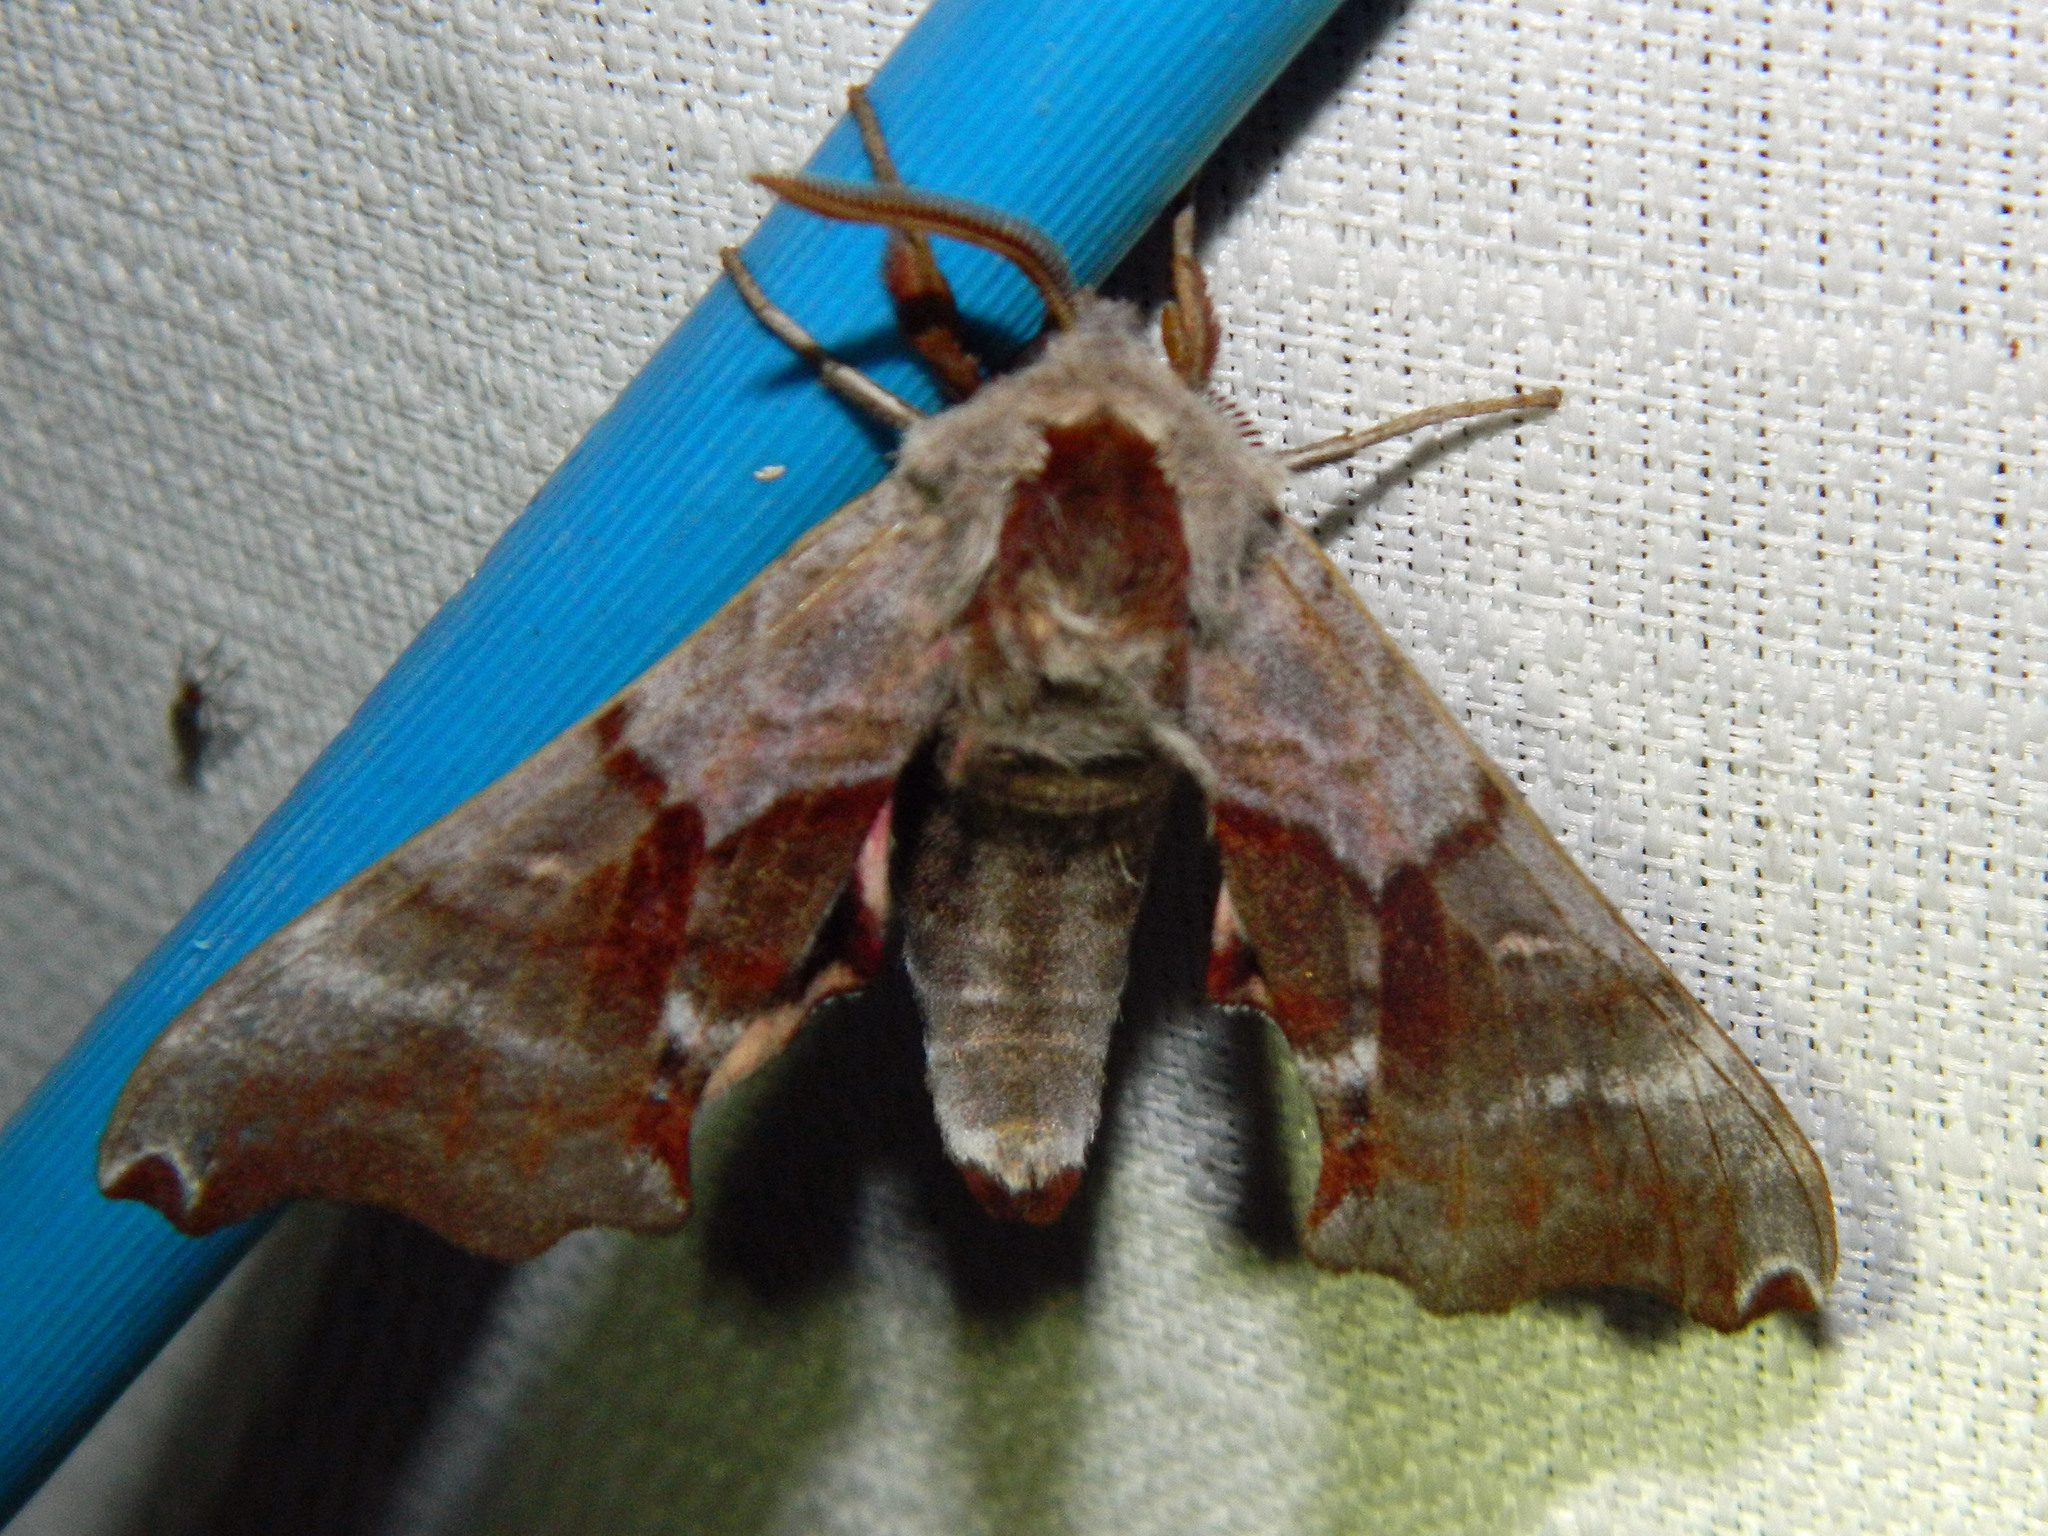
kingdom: Animalia
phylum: Arthropoda
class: Insecta
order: Lepidoptera
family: Sphingidae
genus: Smerinthus
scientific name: Smerinthus jamaicensis
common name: Twin spotted sphinx
